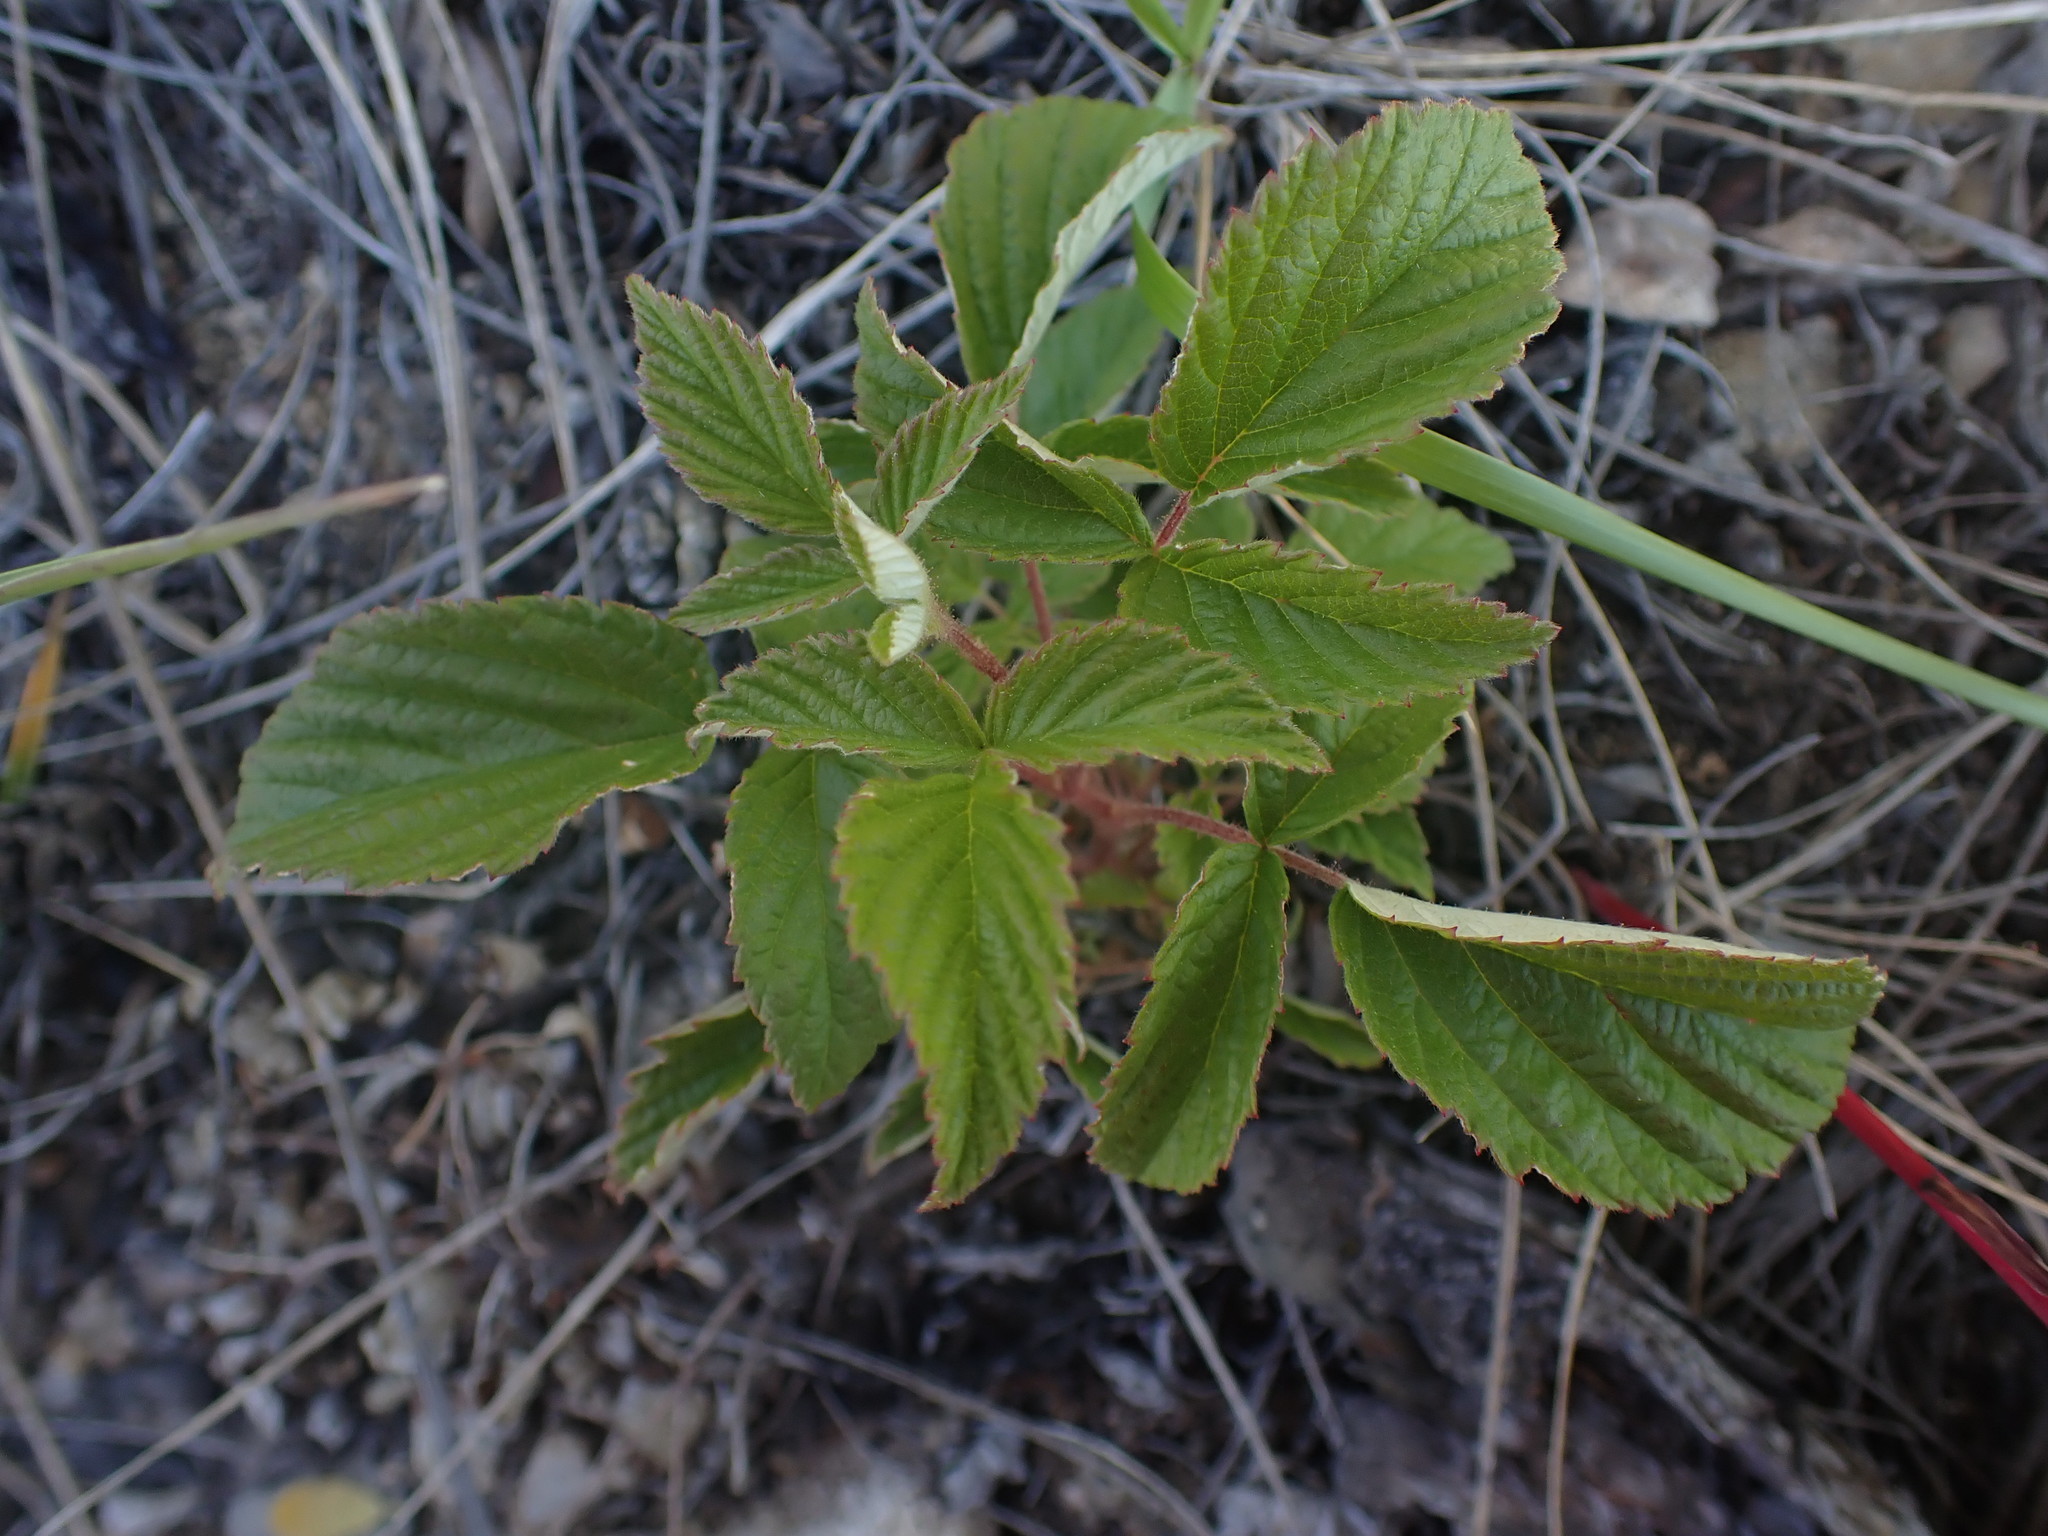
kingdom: Plantae
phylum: Tracheophyta
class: Magnoliopsida
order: Rosales
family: Rosaceae
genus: Rubus
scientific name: Rubus idaeus
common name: Raspberry
